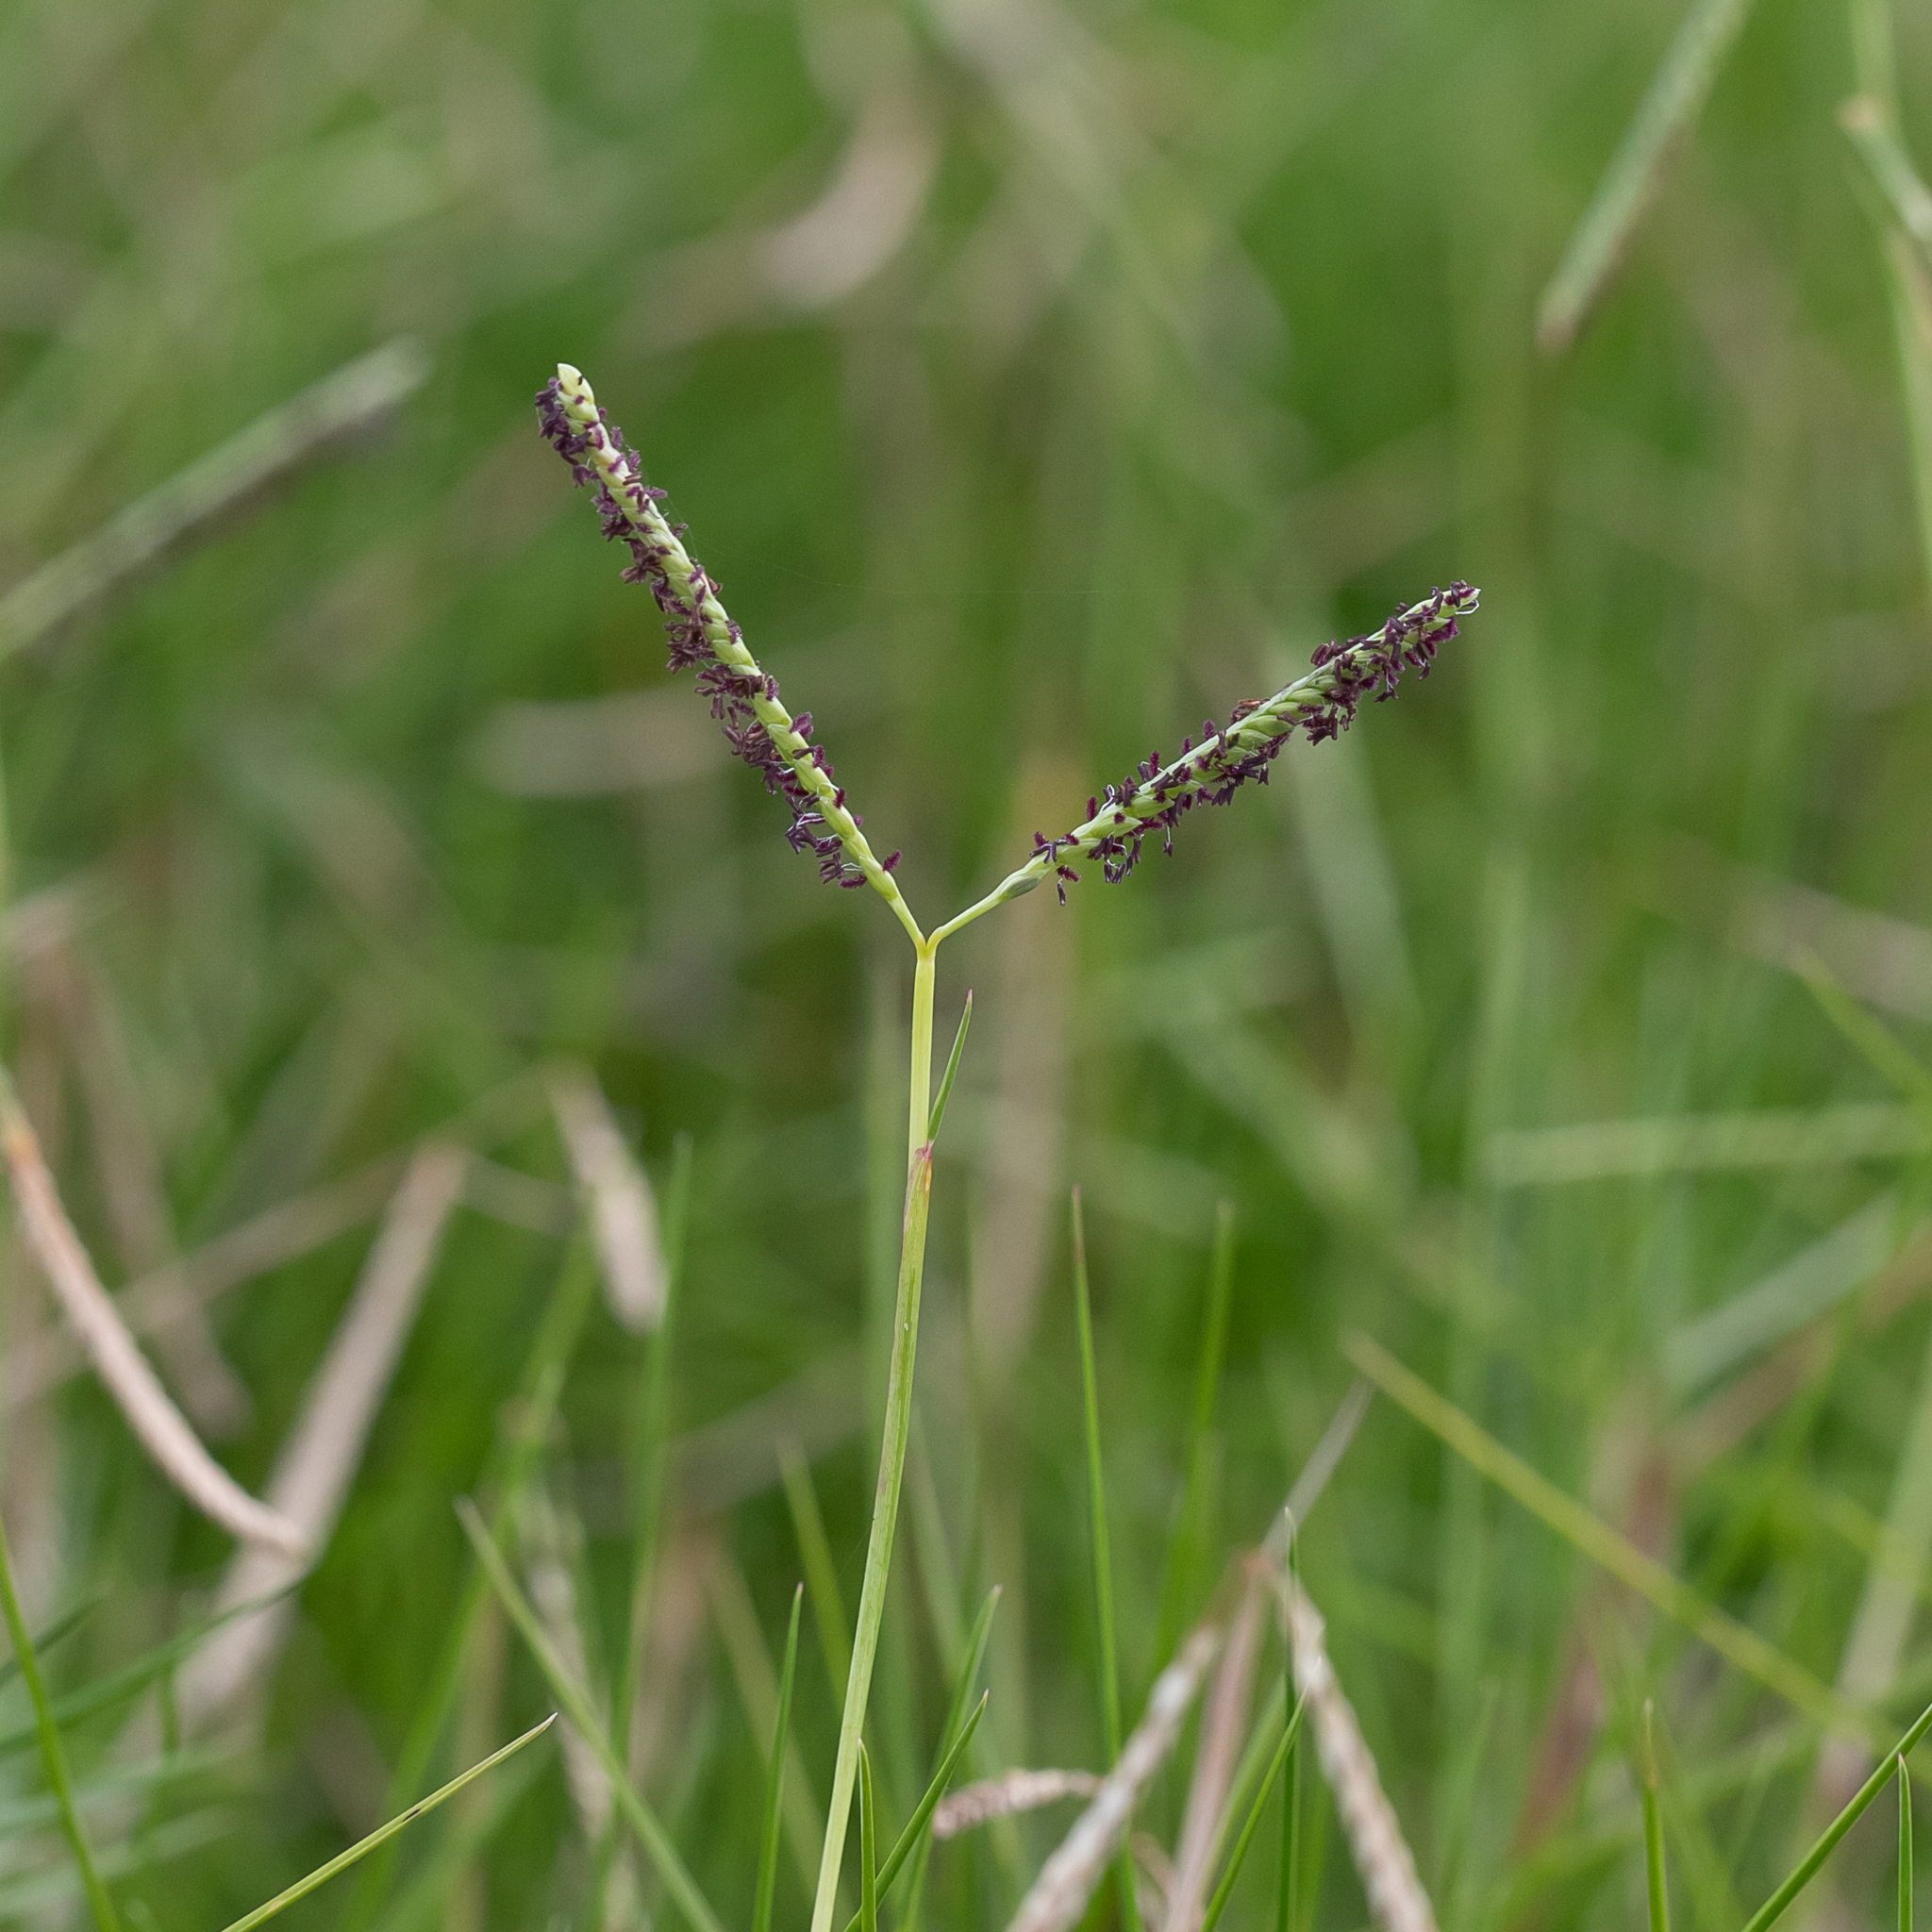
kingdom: Plantae
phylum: Tracheophyta
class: Liliopsida
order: Poales
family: Poaceae
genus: Paspalum
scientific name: Paspalum vaginatum
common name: Seashore paspalum
